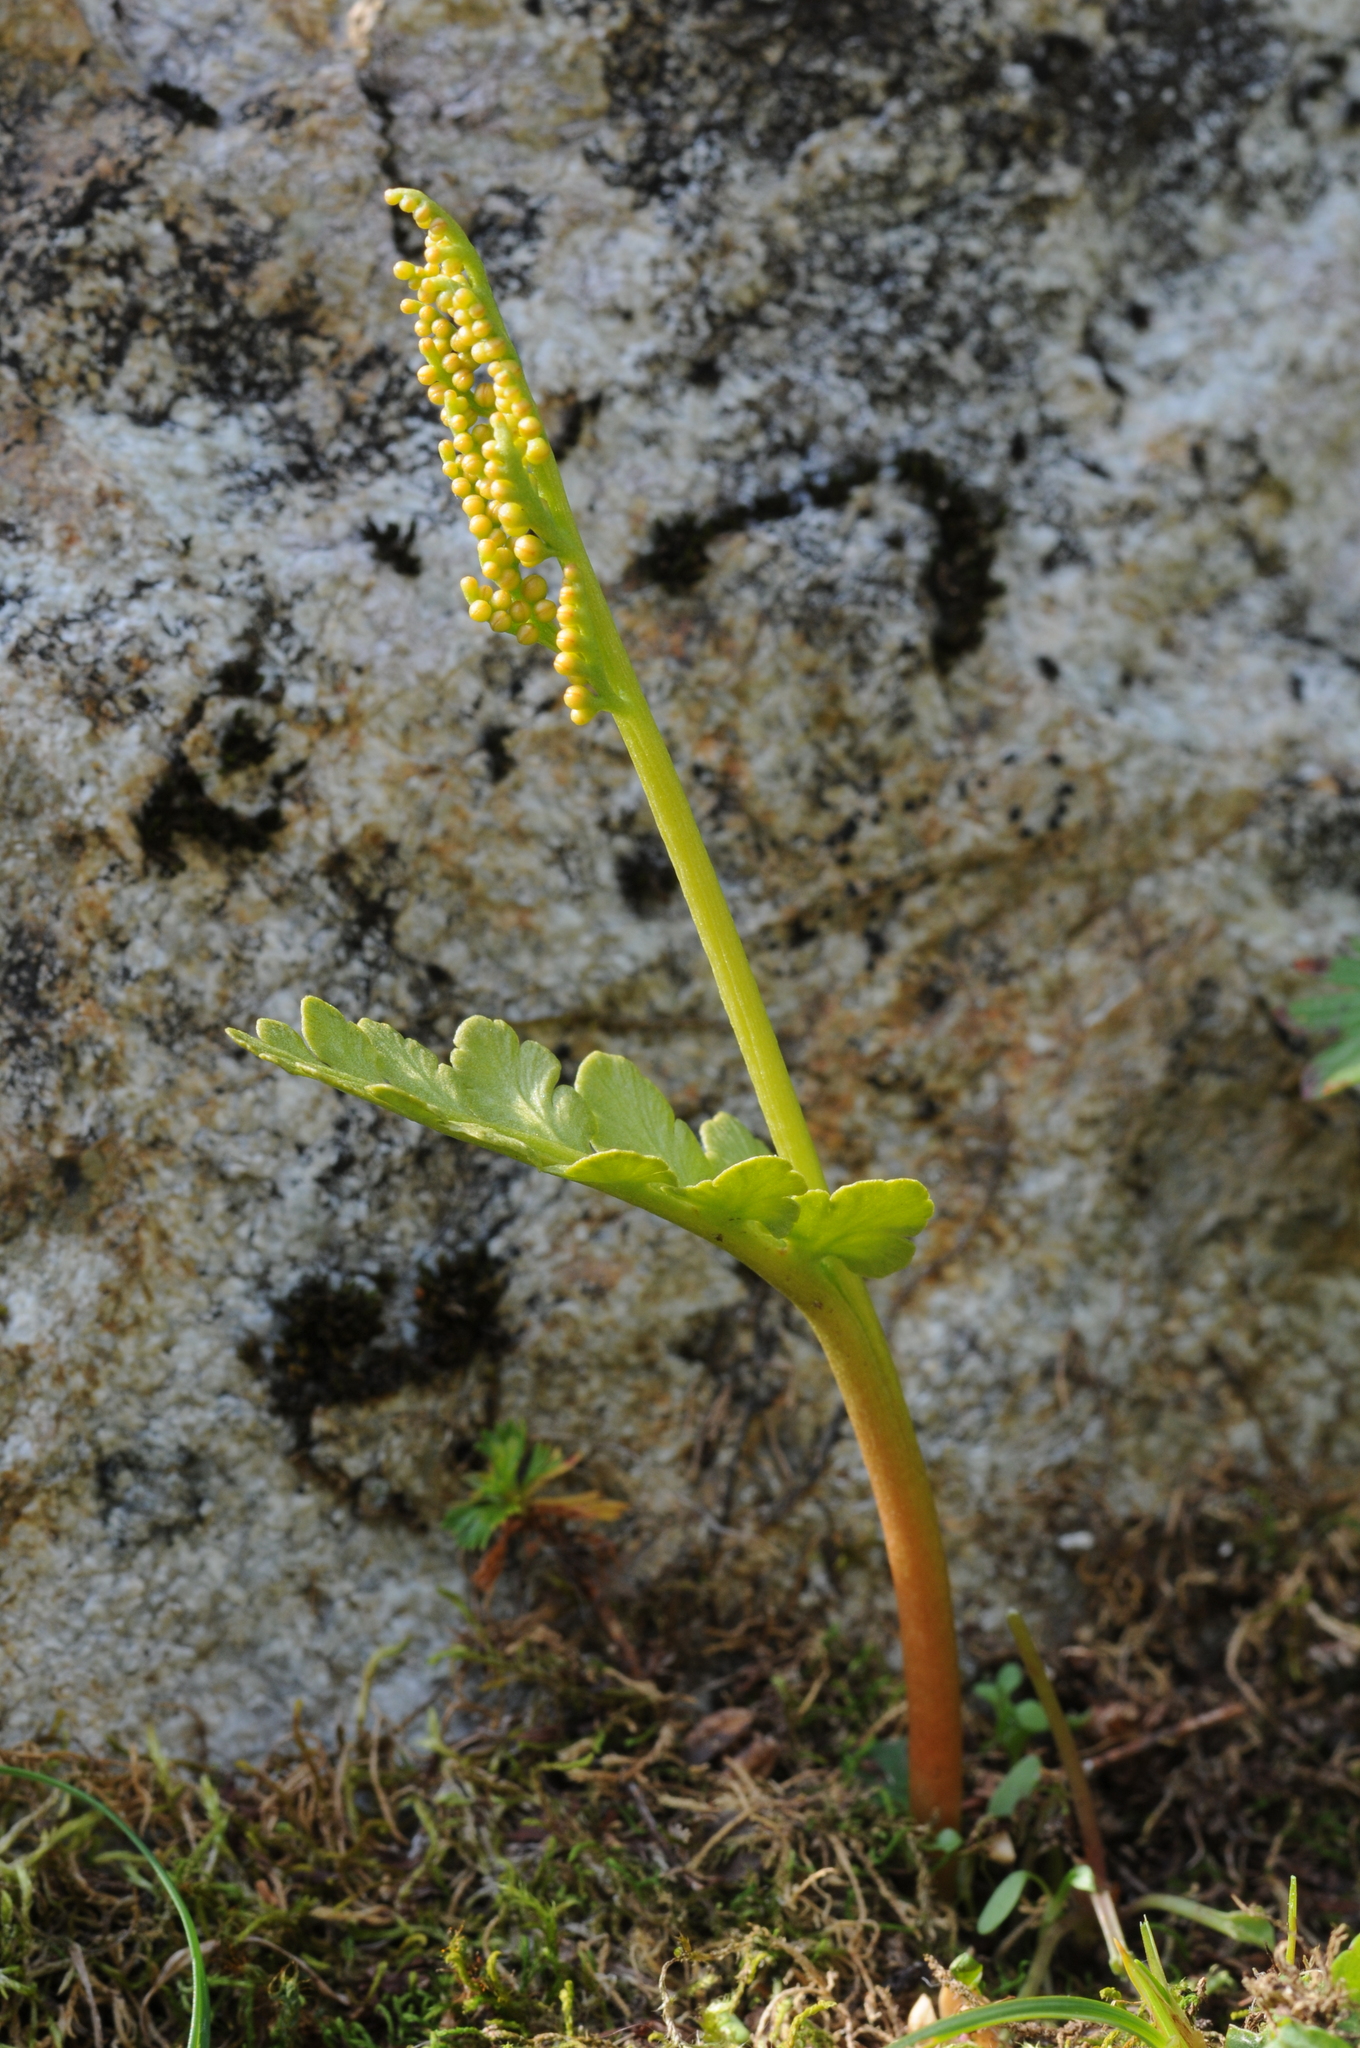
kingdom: Plantae
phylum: Tracheophyta
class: Polypodiopsida
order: Ophioglossales
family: Ophioglossaceae
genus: Botrychium
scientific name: Botrychium pinnatum
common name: Northwestern moonwort
